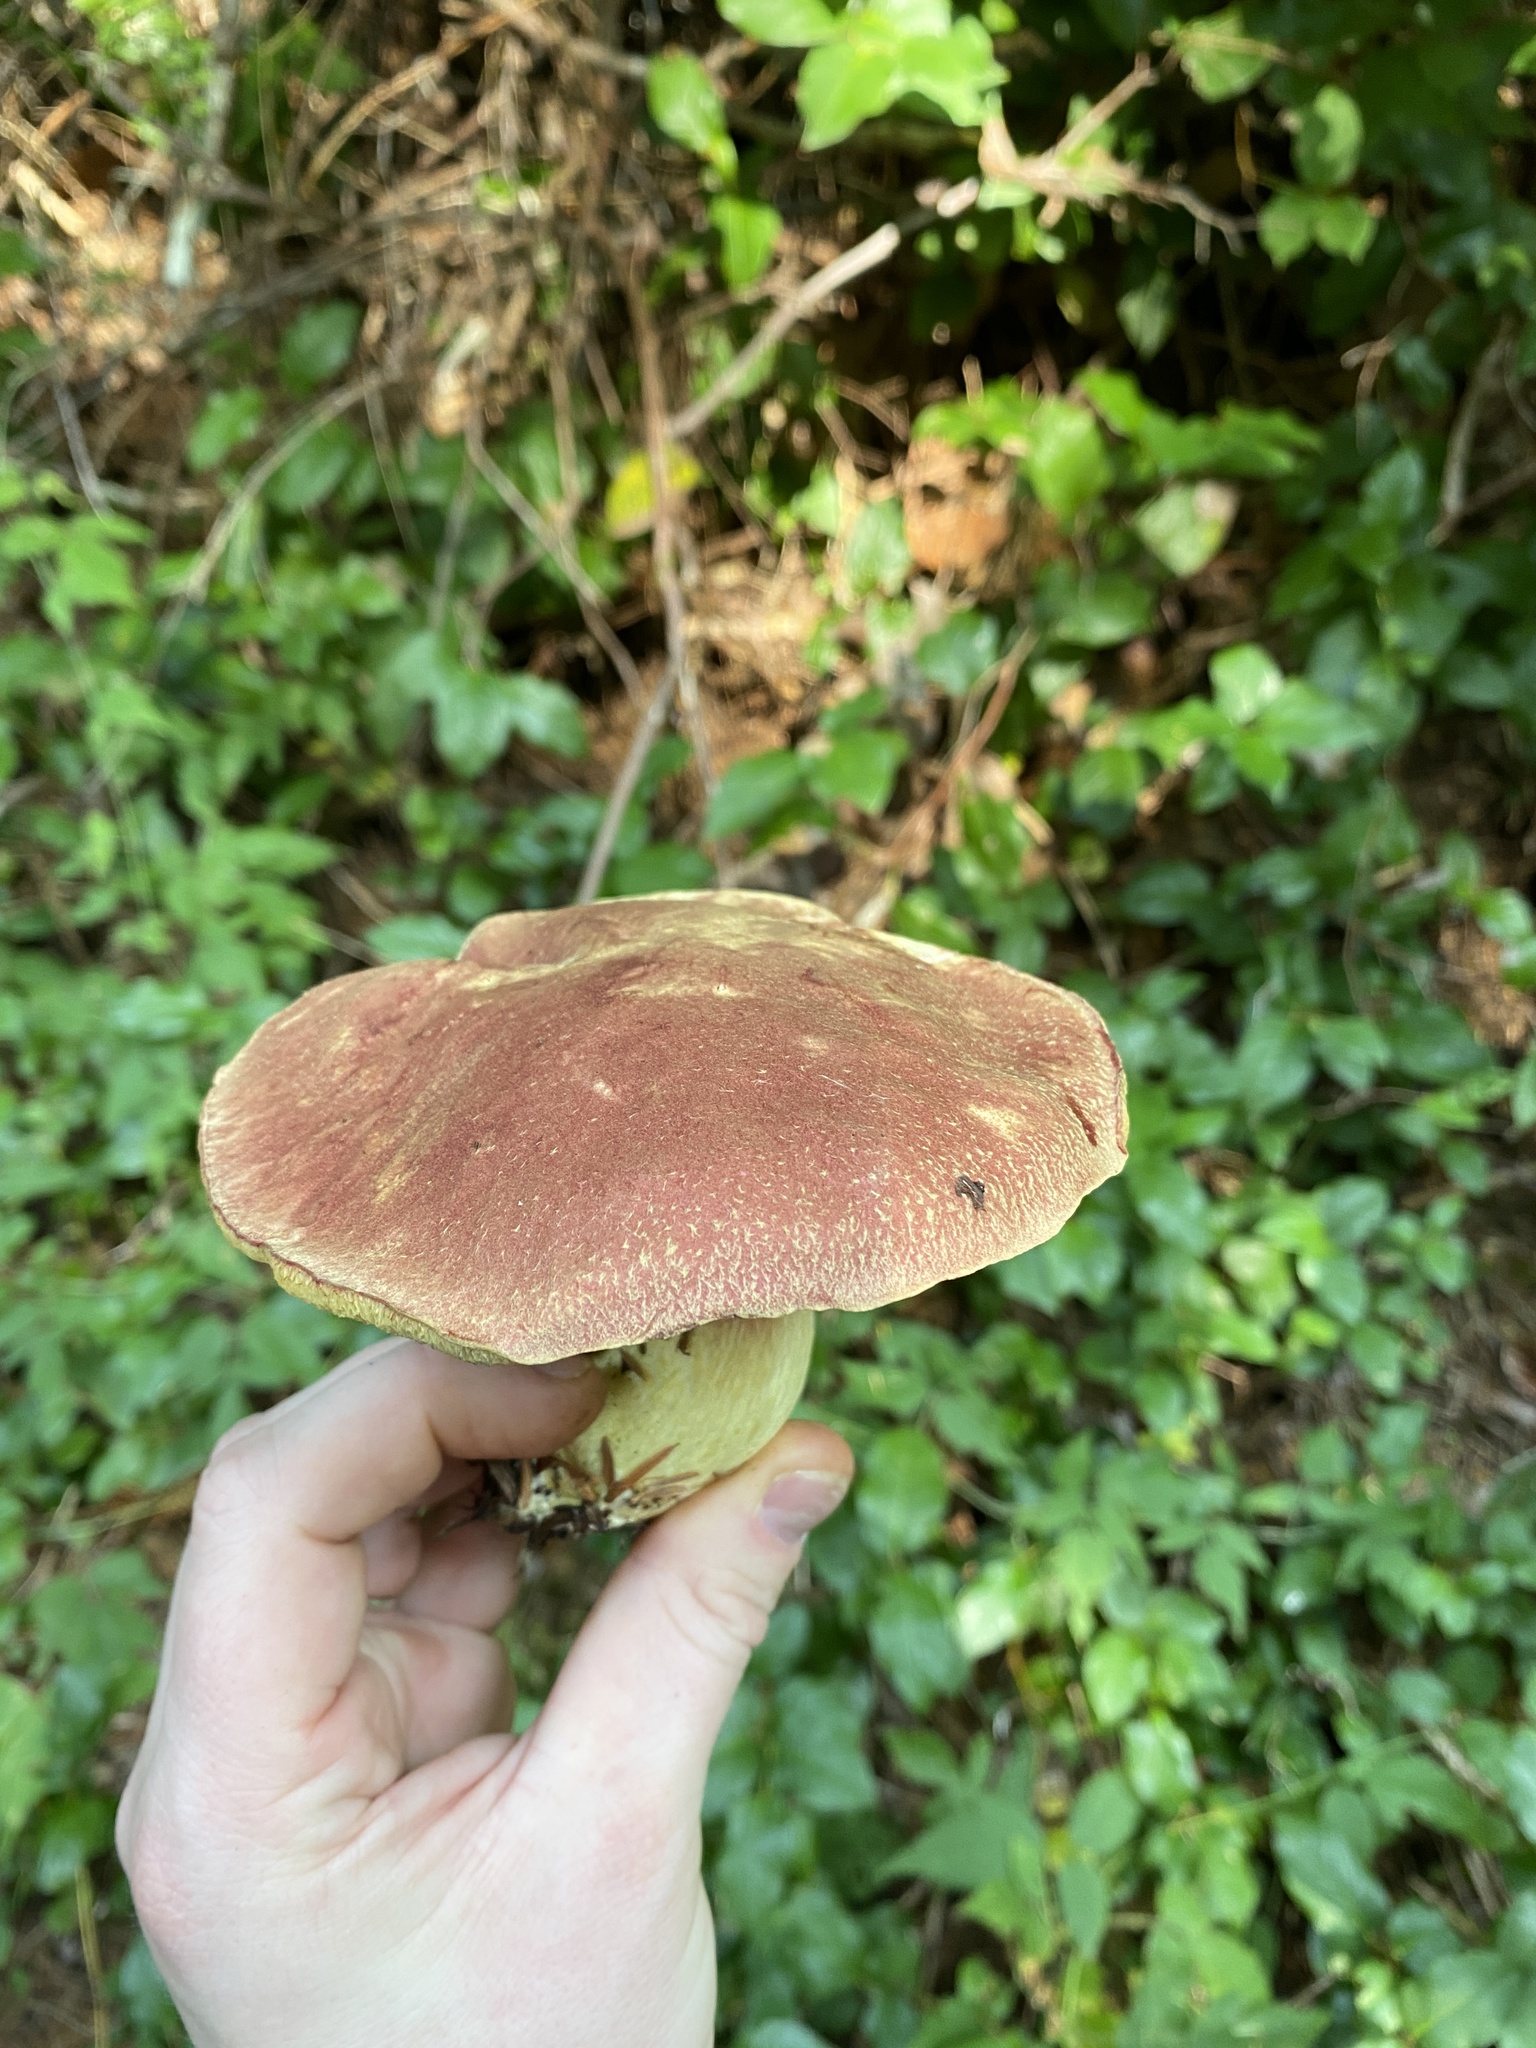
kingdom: Fungi
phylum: Basidiomycota
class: Agaricomycetes
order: Boletales
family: Boletaceae
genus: Boletus
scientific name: Boletus smithii
